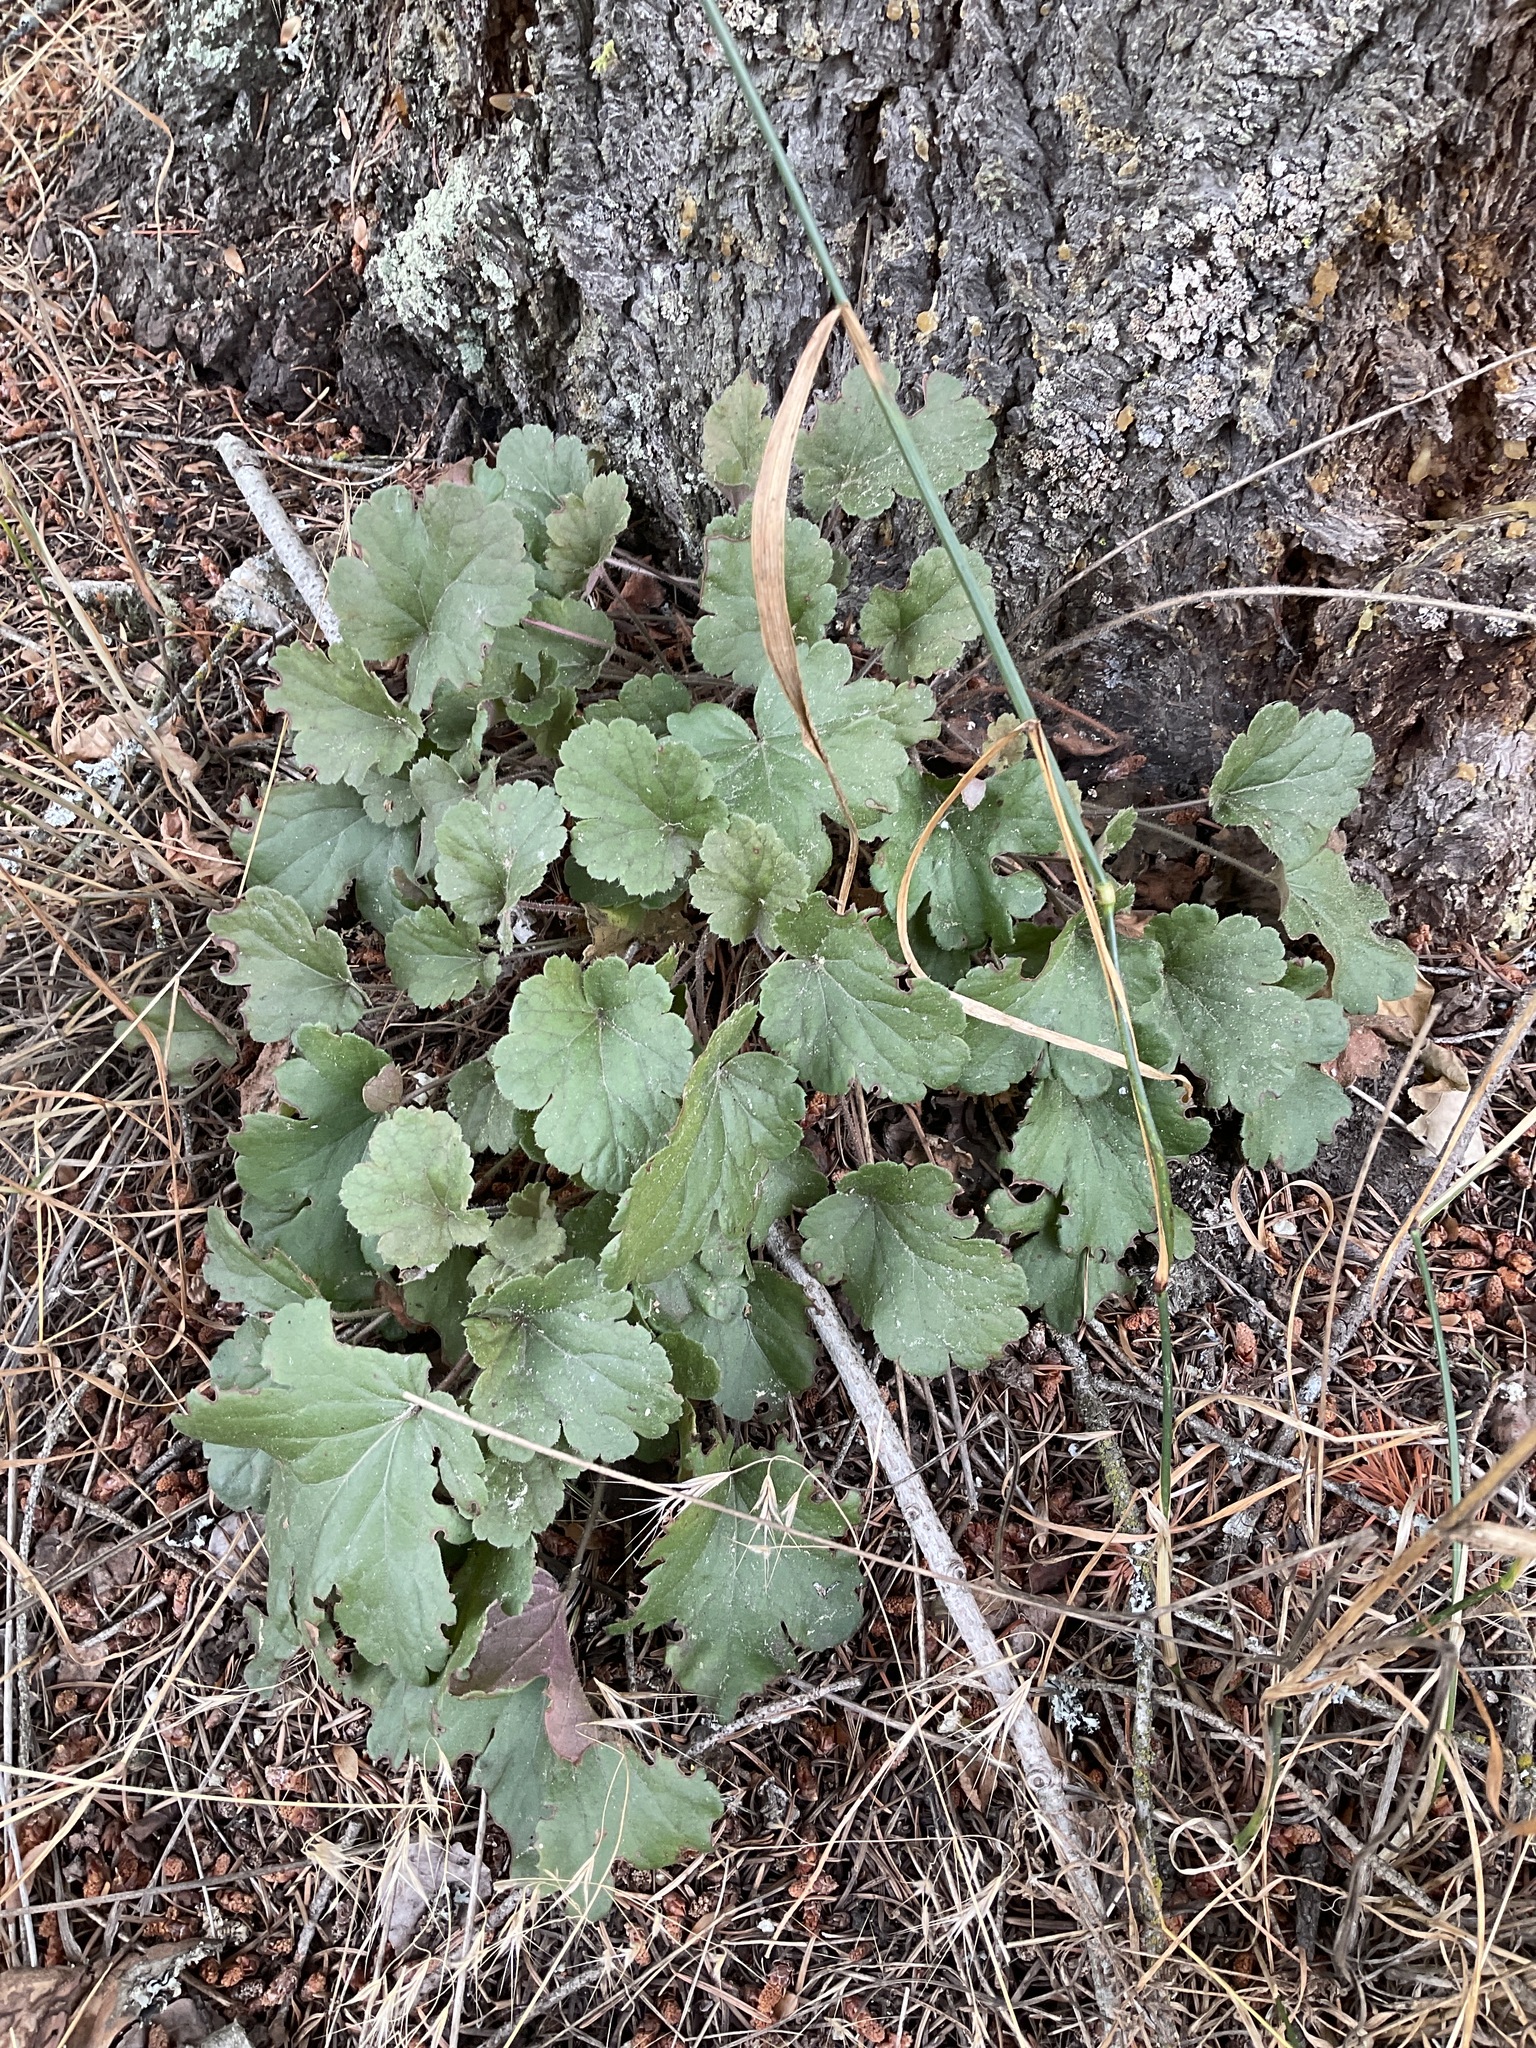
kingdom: Plantae
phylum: Tracheophyta
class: Magnoliopsida
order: Saxifragales
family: Saxifragaceae
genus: Heuchera
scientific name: Heuchera cylindrica
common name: Mat alumroot
